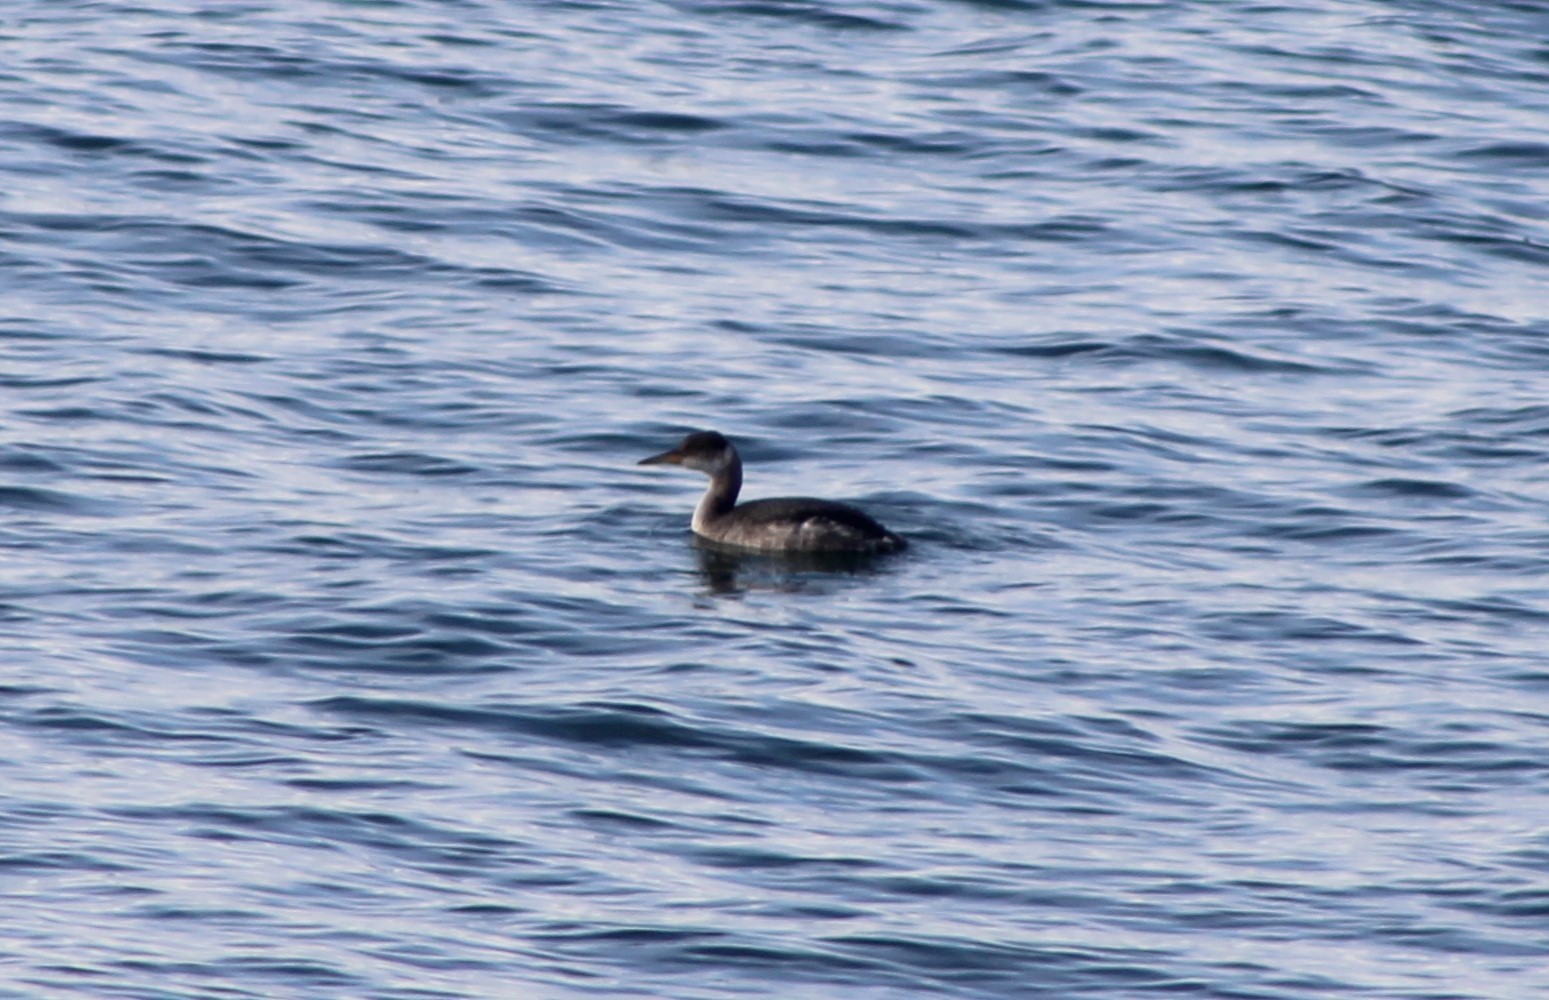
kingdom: Animalia
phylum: Chordata
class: Aves
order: Podicipediformes
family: Podicipedidae
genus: Podiceps
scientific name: Podiceps grisegena
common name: Red-necked grebe
